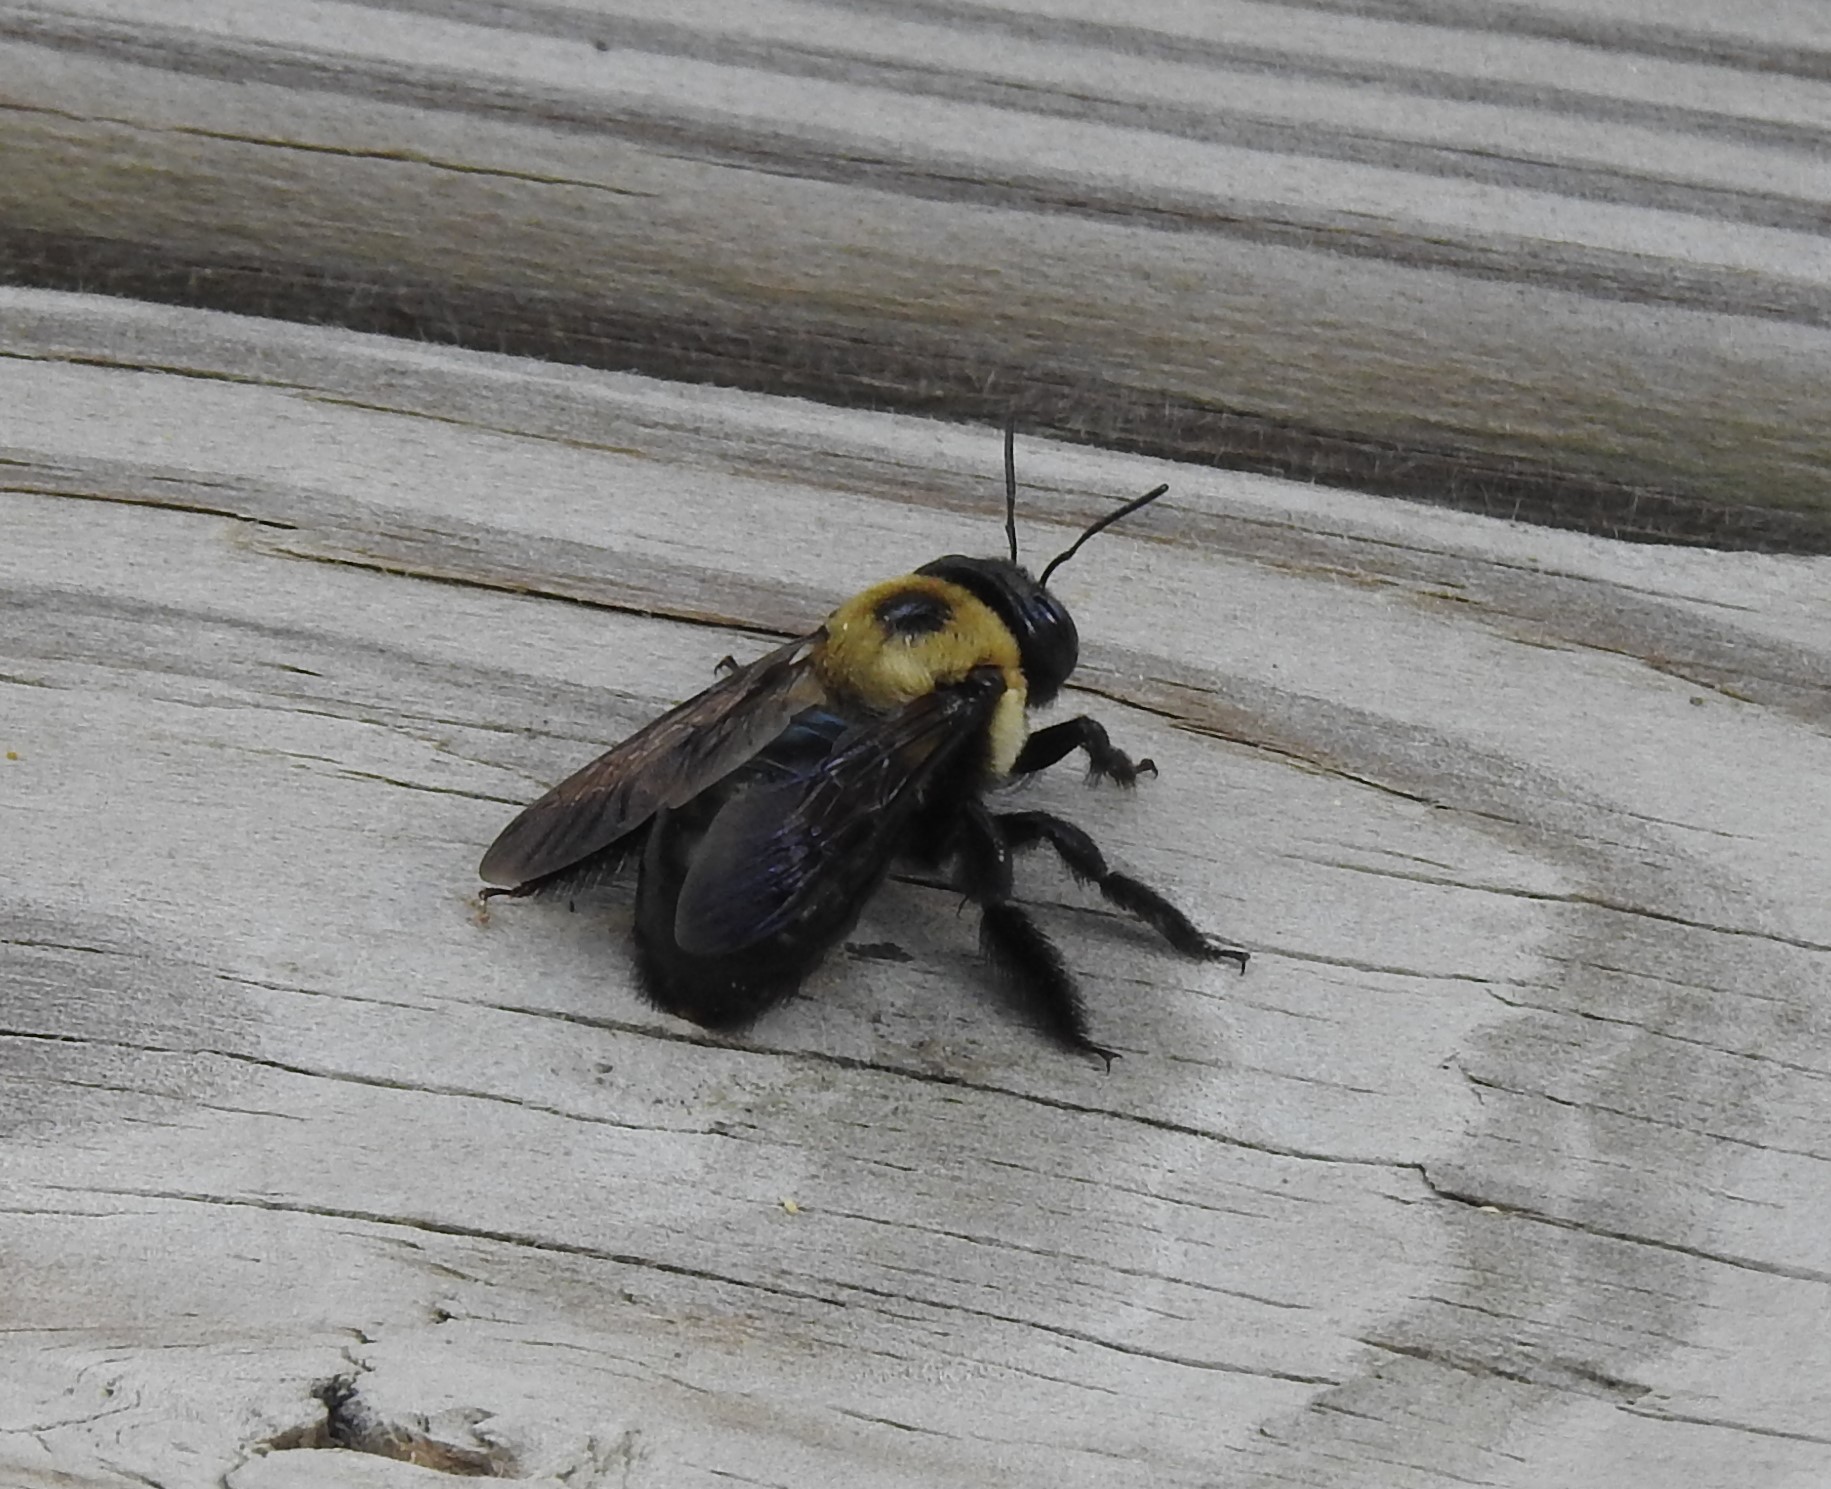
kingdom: Animalia
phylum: Arthropoda
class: Insecta
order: Hymenoptera
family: Apidae
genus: Xylocopa
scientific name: Xylocopa virginica
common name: Carpenter bee
